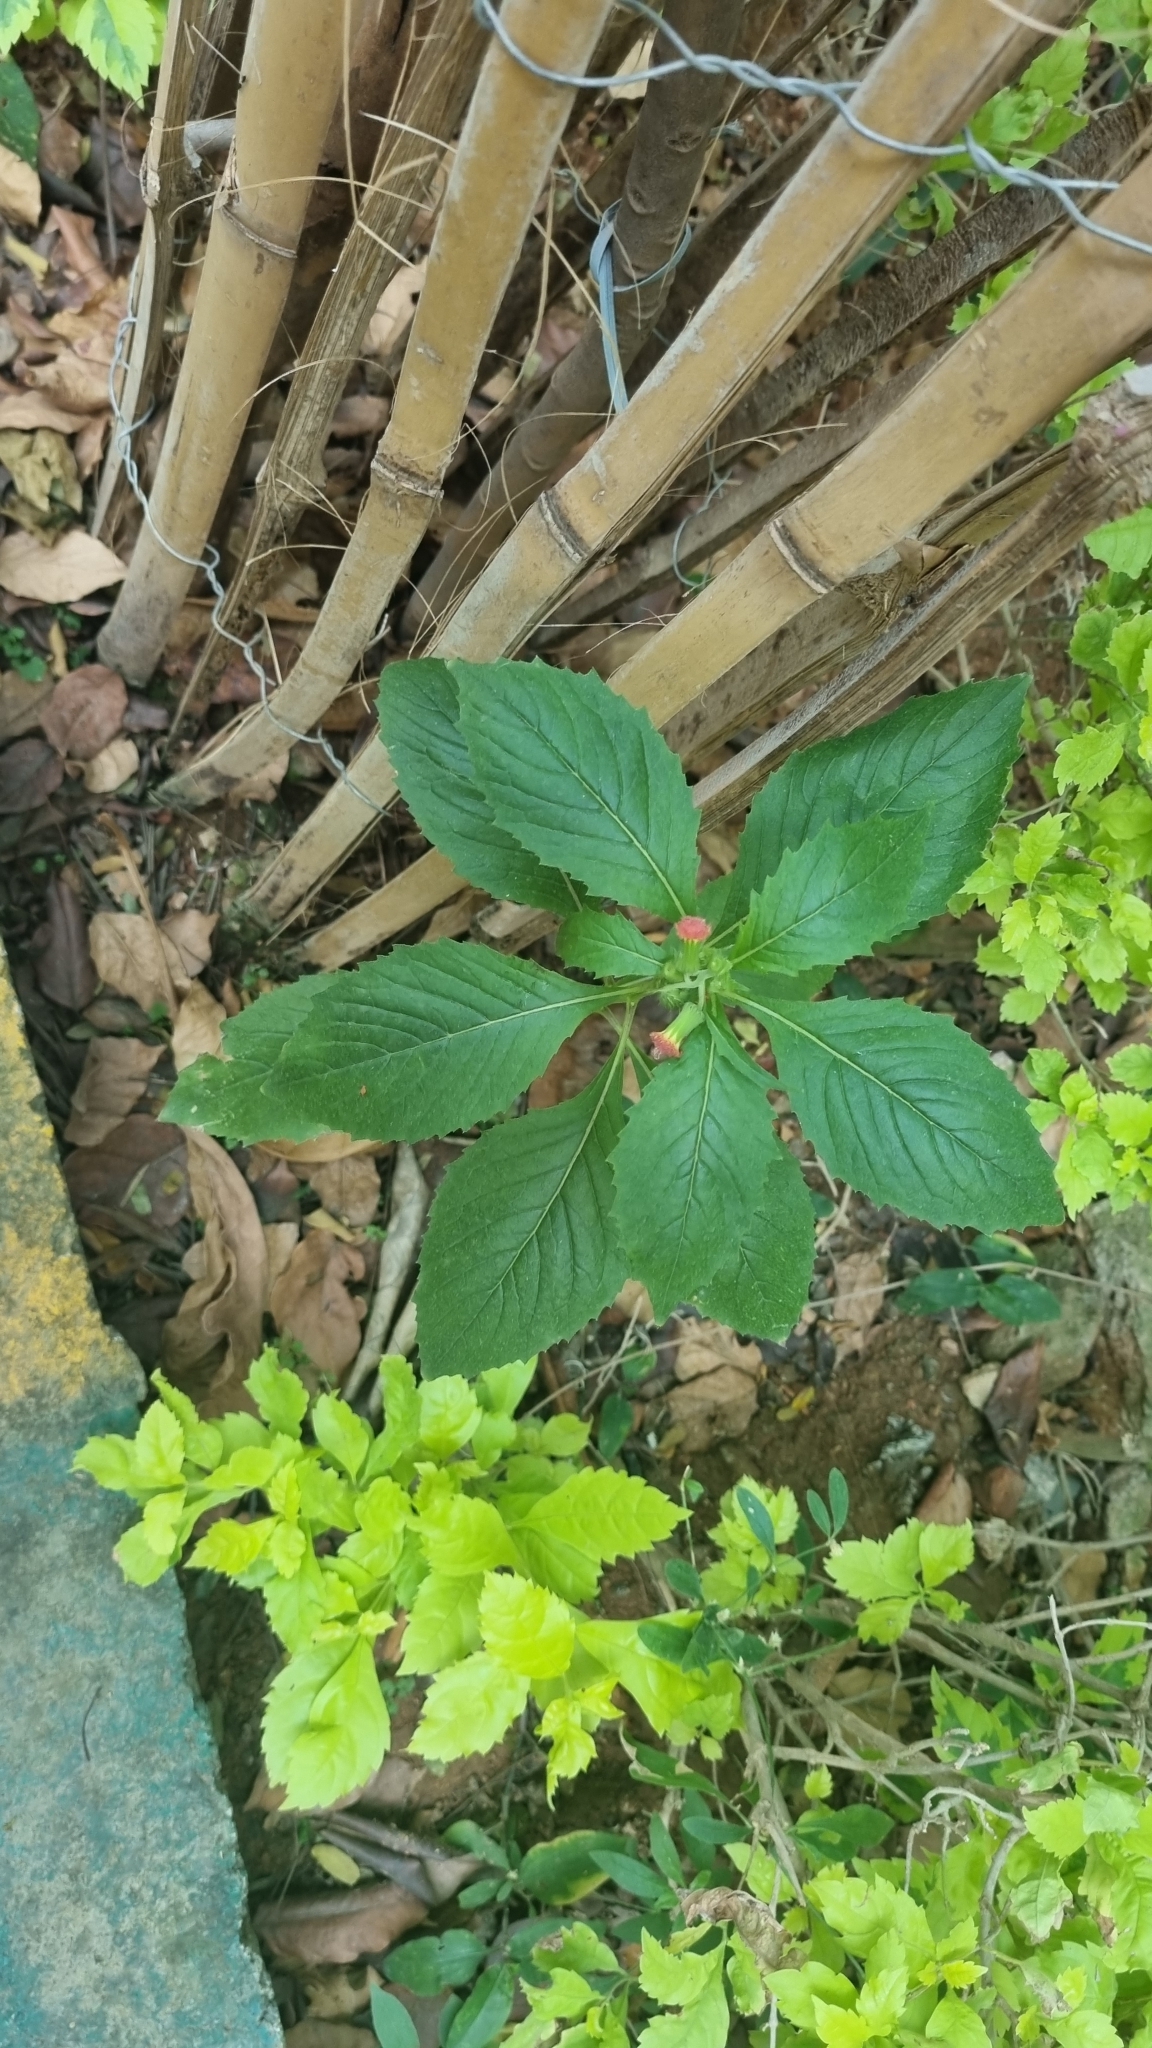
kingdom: Plantae
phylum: Tracheophyta
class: Magnoliopsida
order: Asterales
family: Asteraceae
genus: Crassocephalum
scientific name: Crassocephalum crepidioides
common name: Redflower ragleaf
